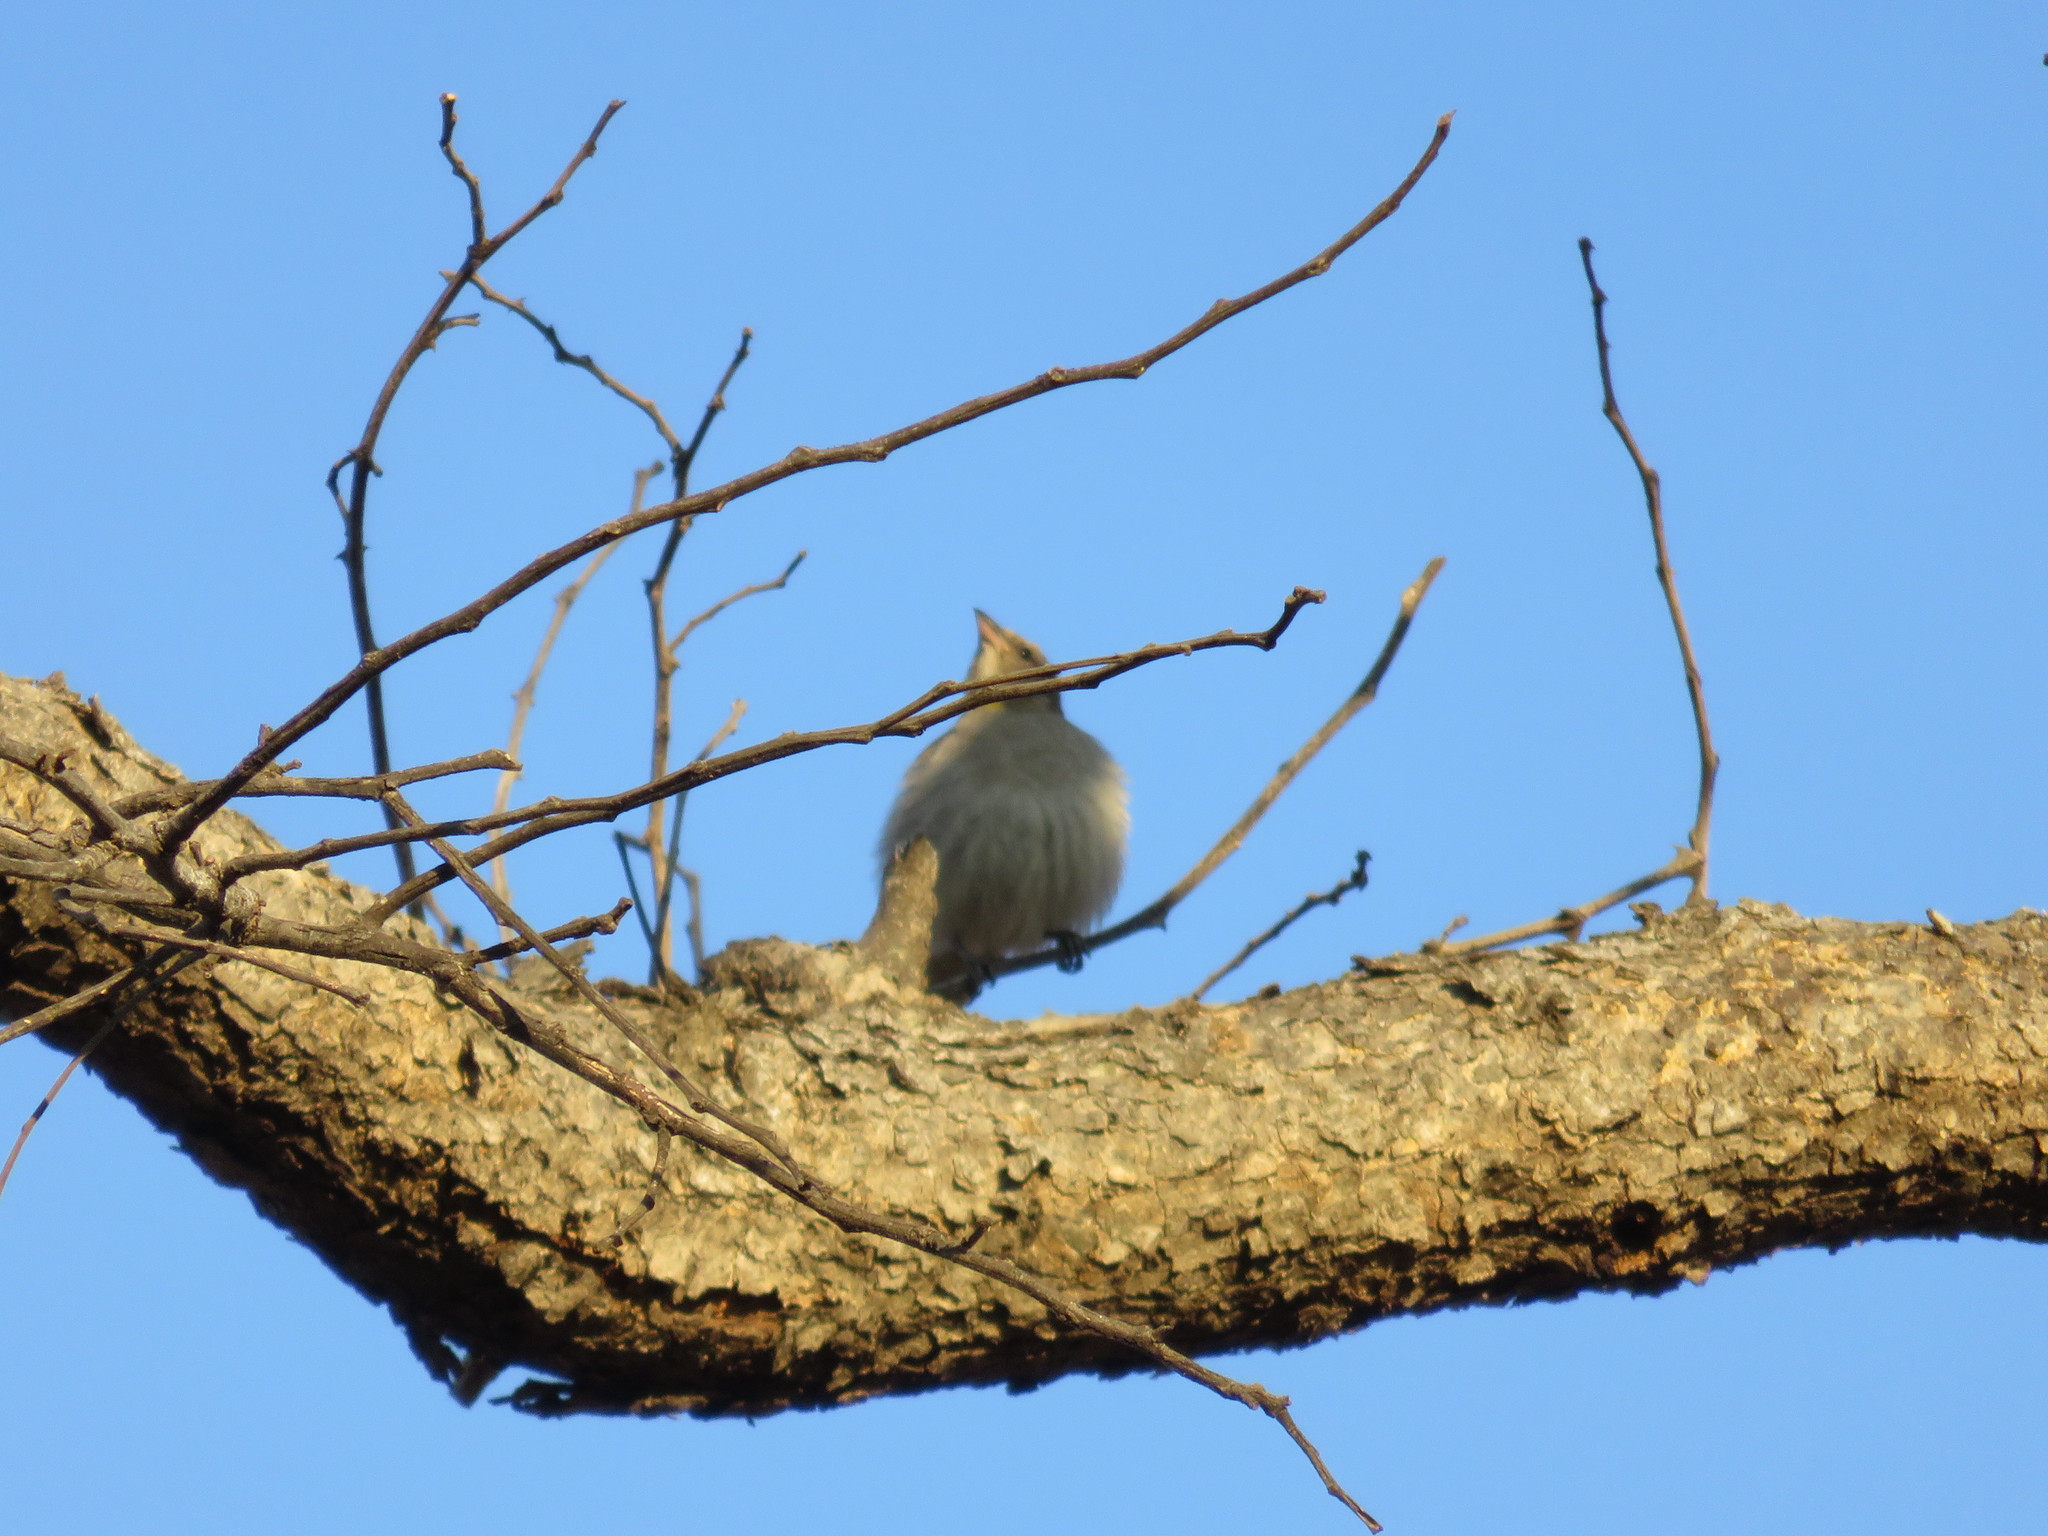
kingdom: Animalia
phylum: Chordata
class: Aves
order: Passeriformes
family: Passeridae
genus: Gymnoris
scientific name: Gymnoris superciliaris
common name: Yellow-throated petronia
